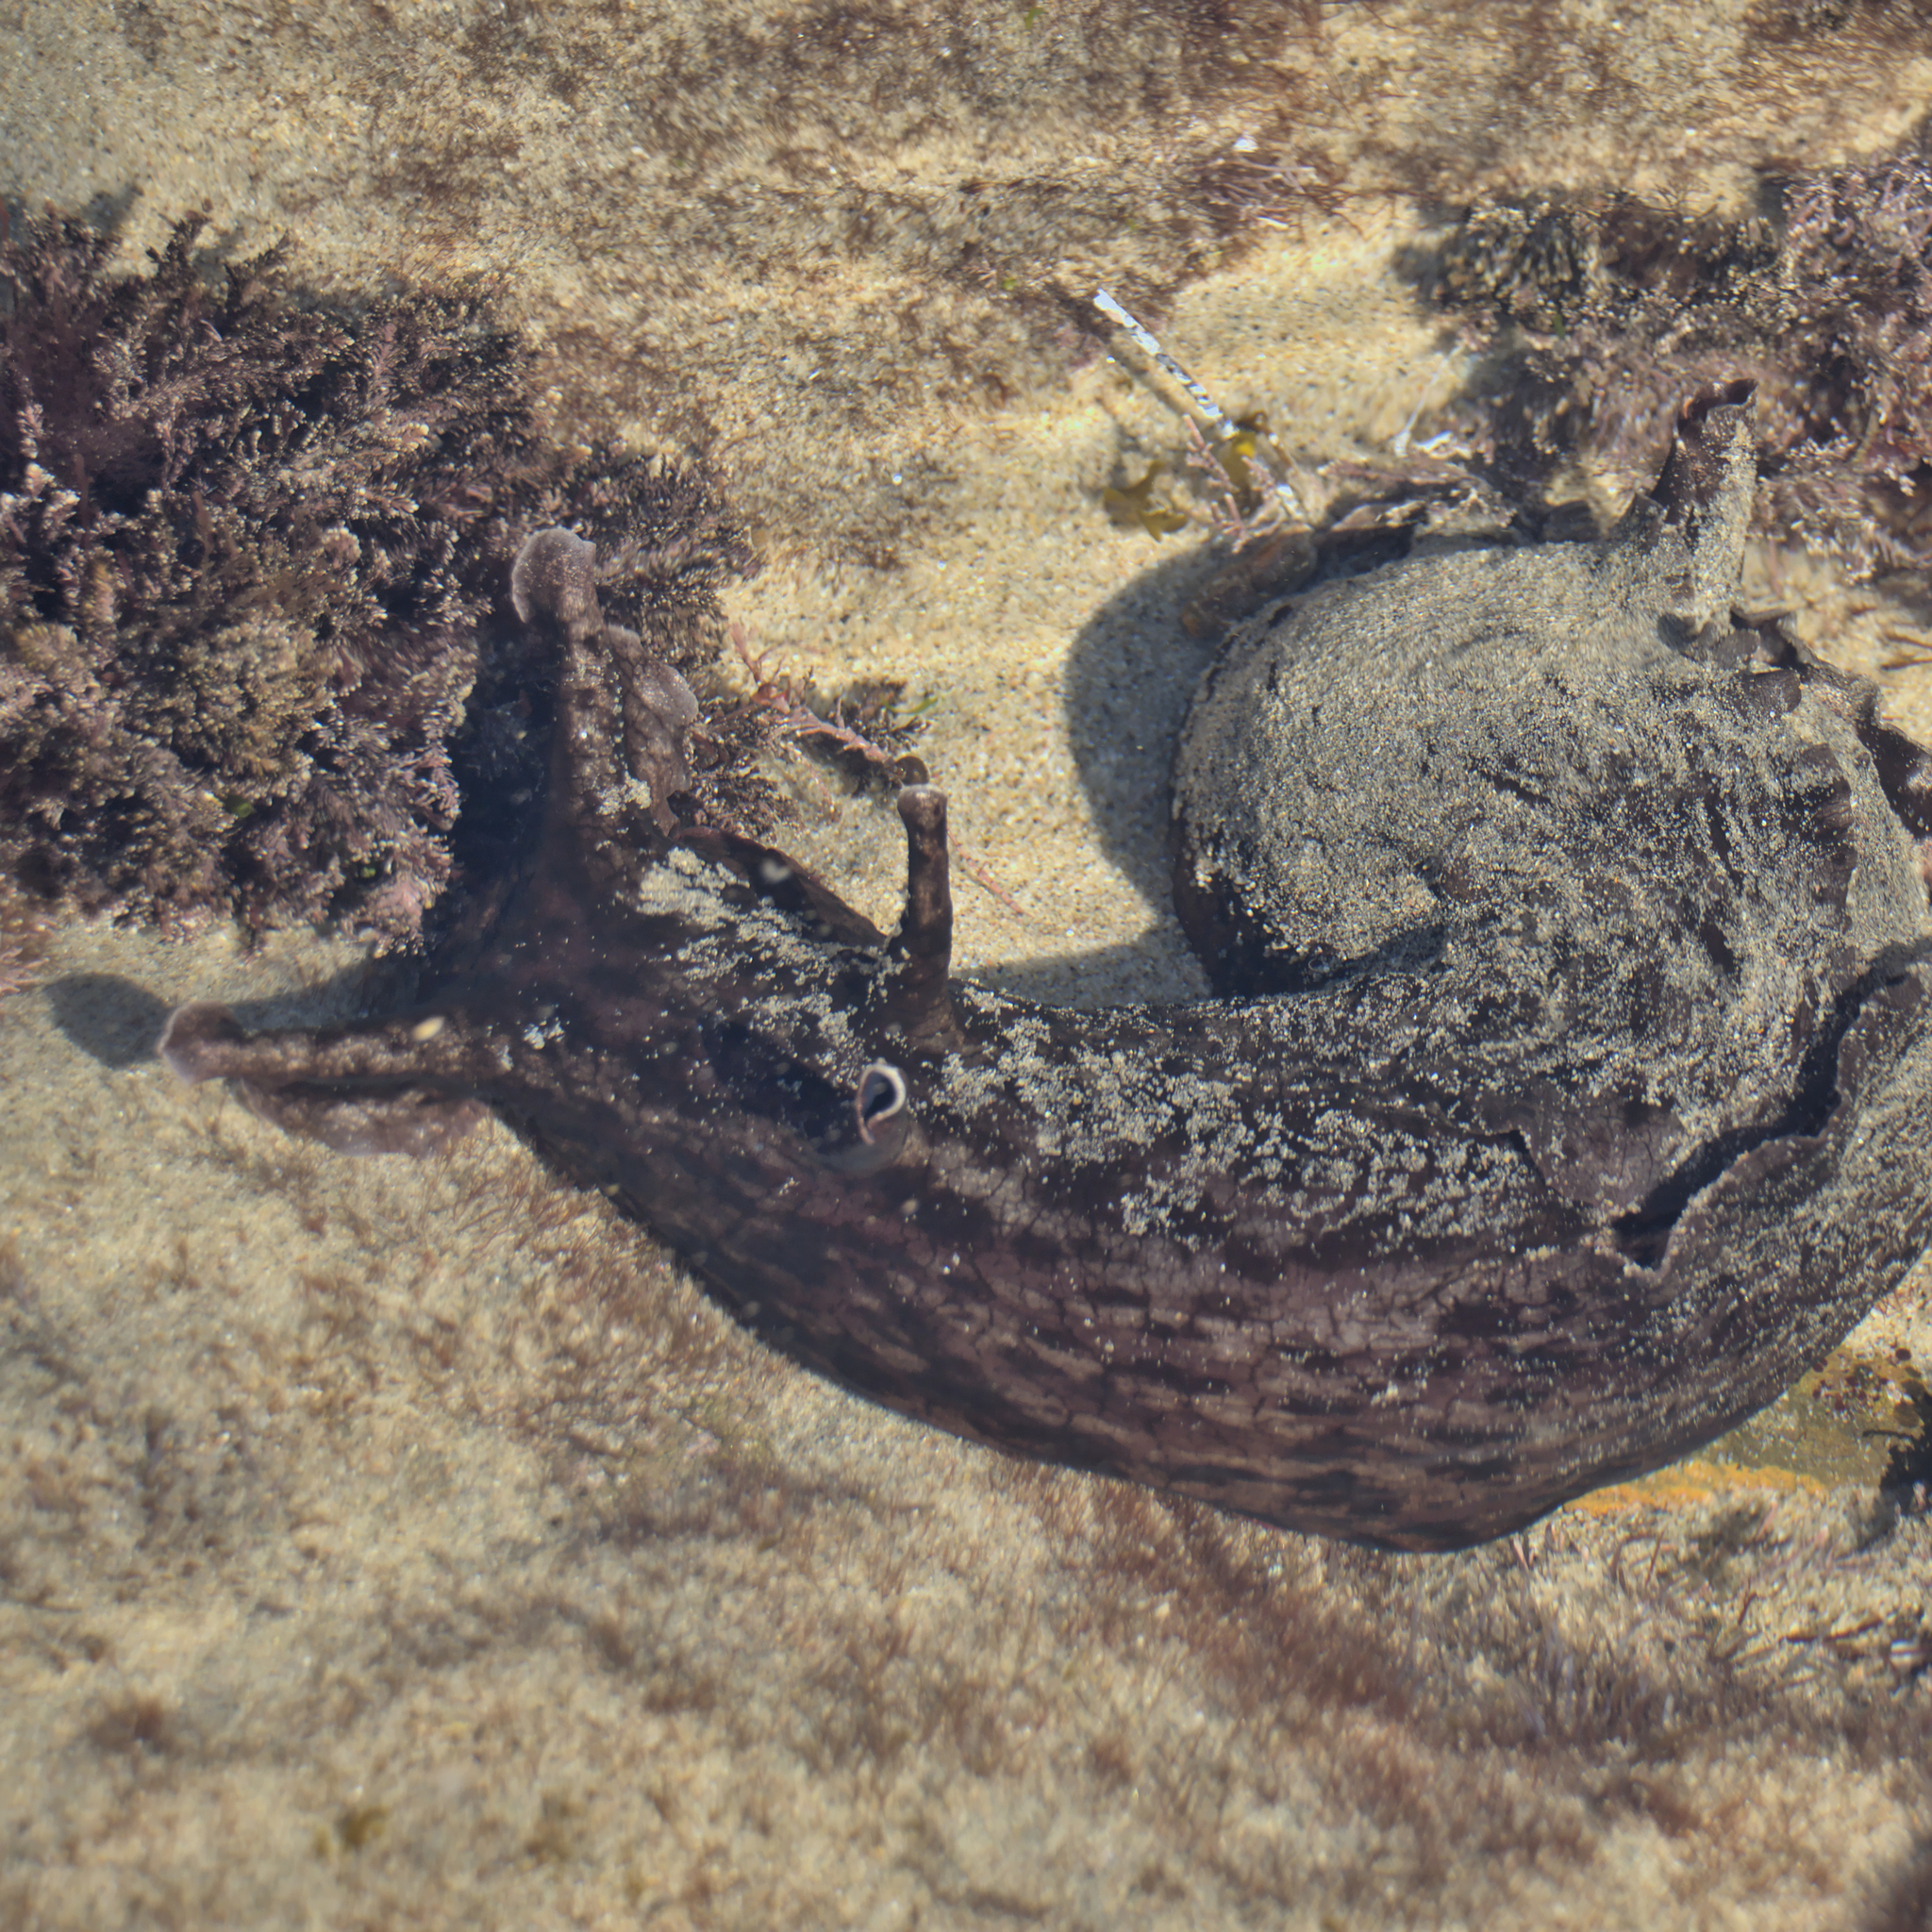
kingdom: Animalia
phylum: Mollusca
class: Gastropoda
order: Aplysiida
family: Aplysiidae
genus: Aplysia
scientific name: Aplysia californica
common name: California seahare
